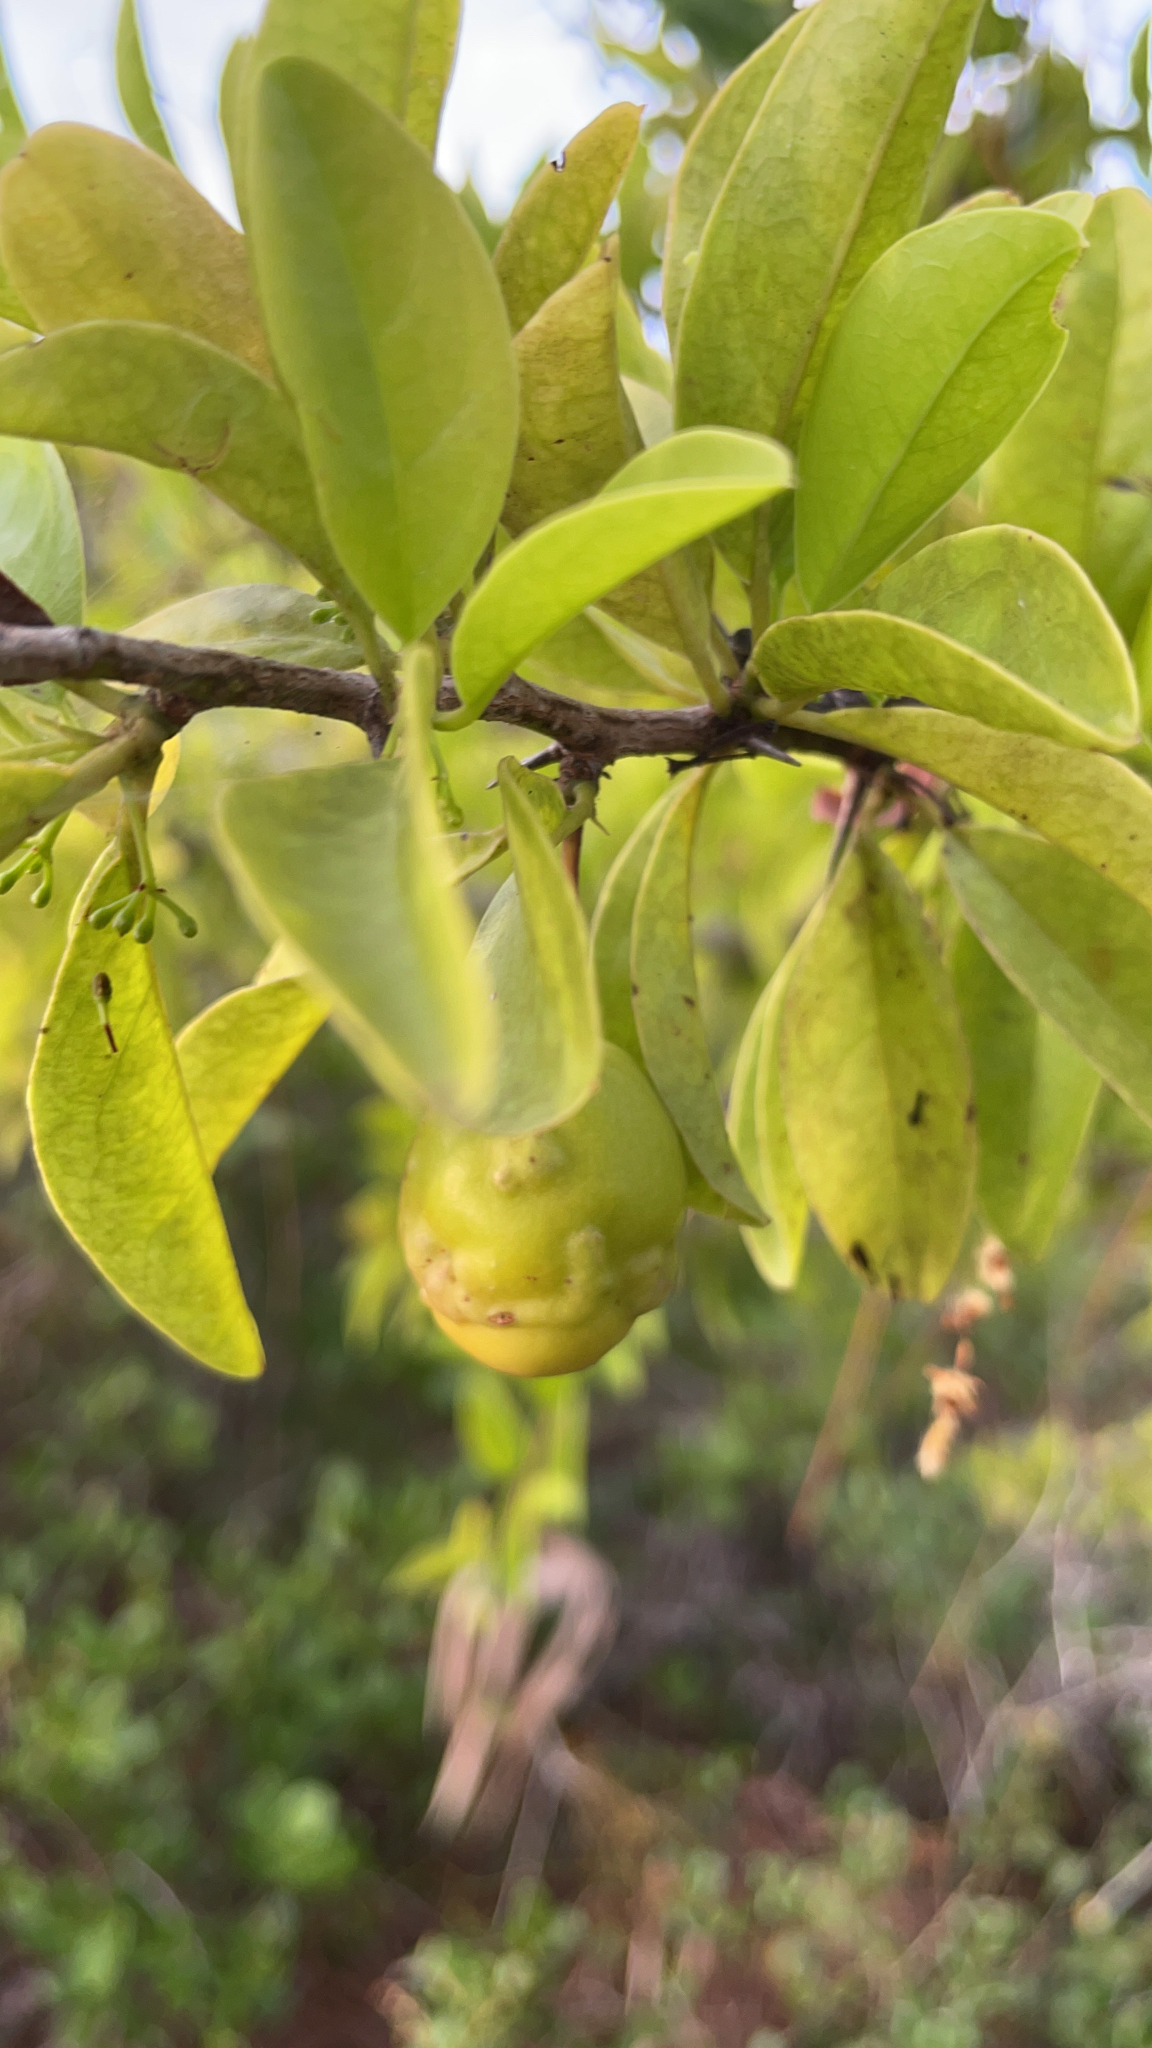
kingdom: Plantae
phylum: Tracheophyta
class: Magnoliopsida
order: Santalales
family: Ximeniaceae
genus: Ximenia
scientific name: Ximenia americana
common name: Tallowwood
